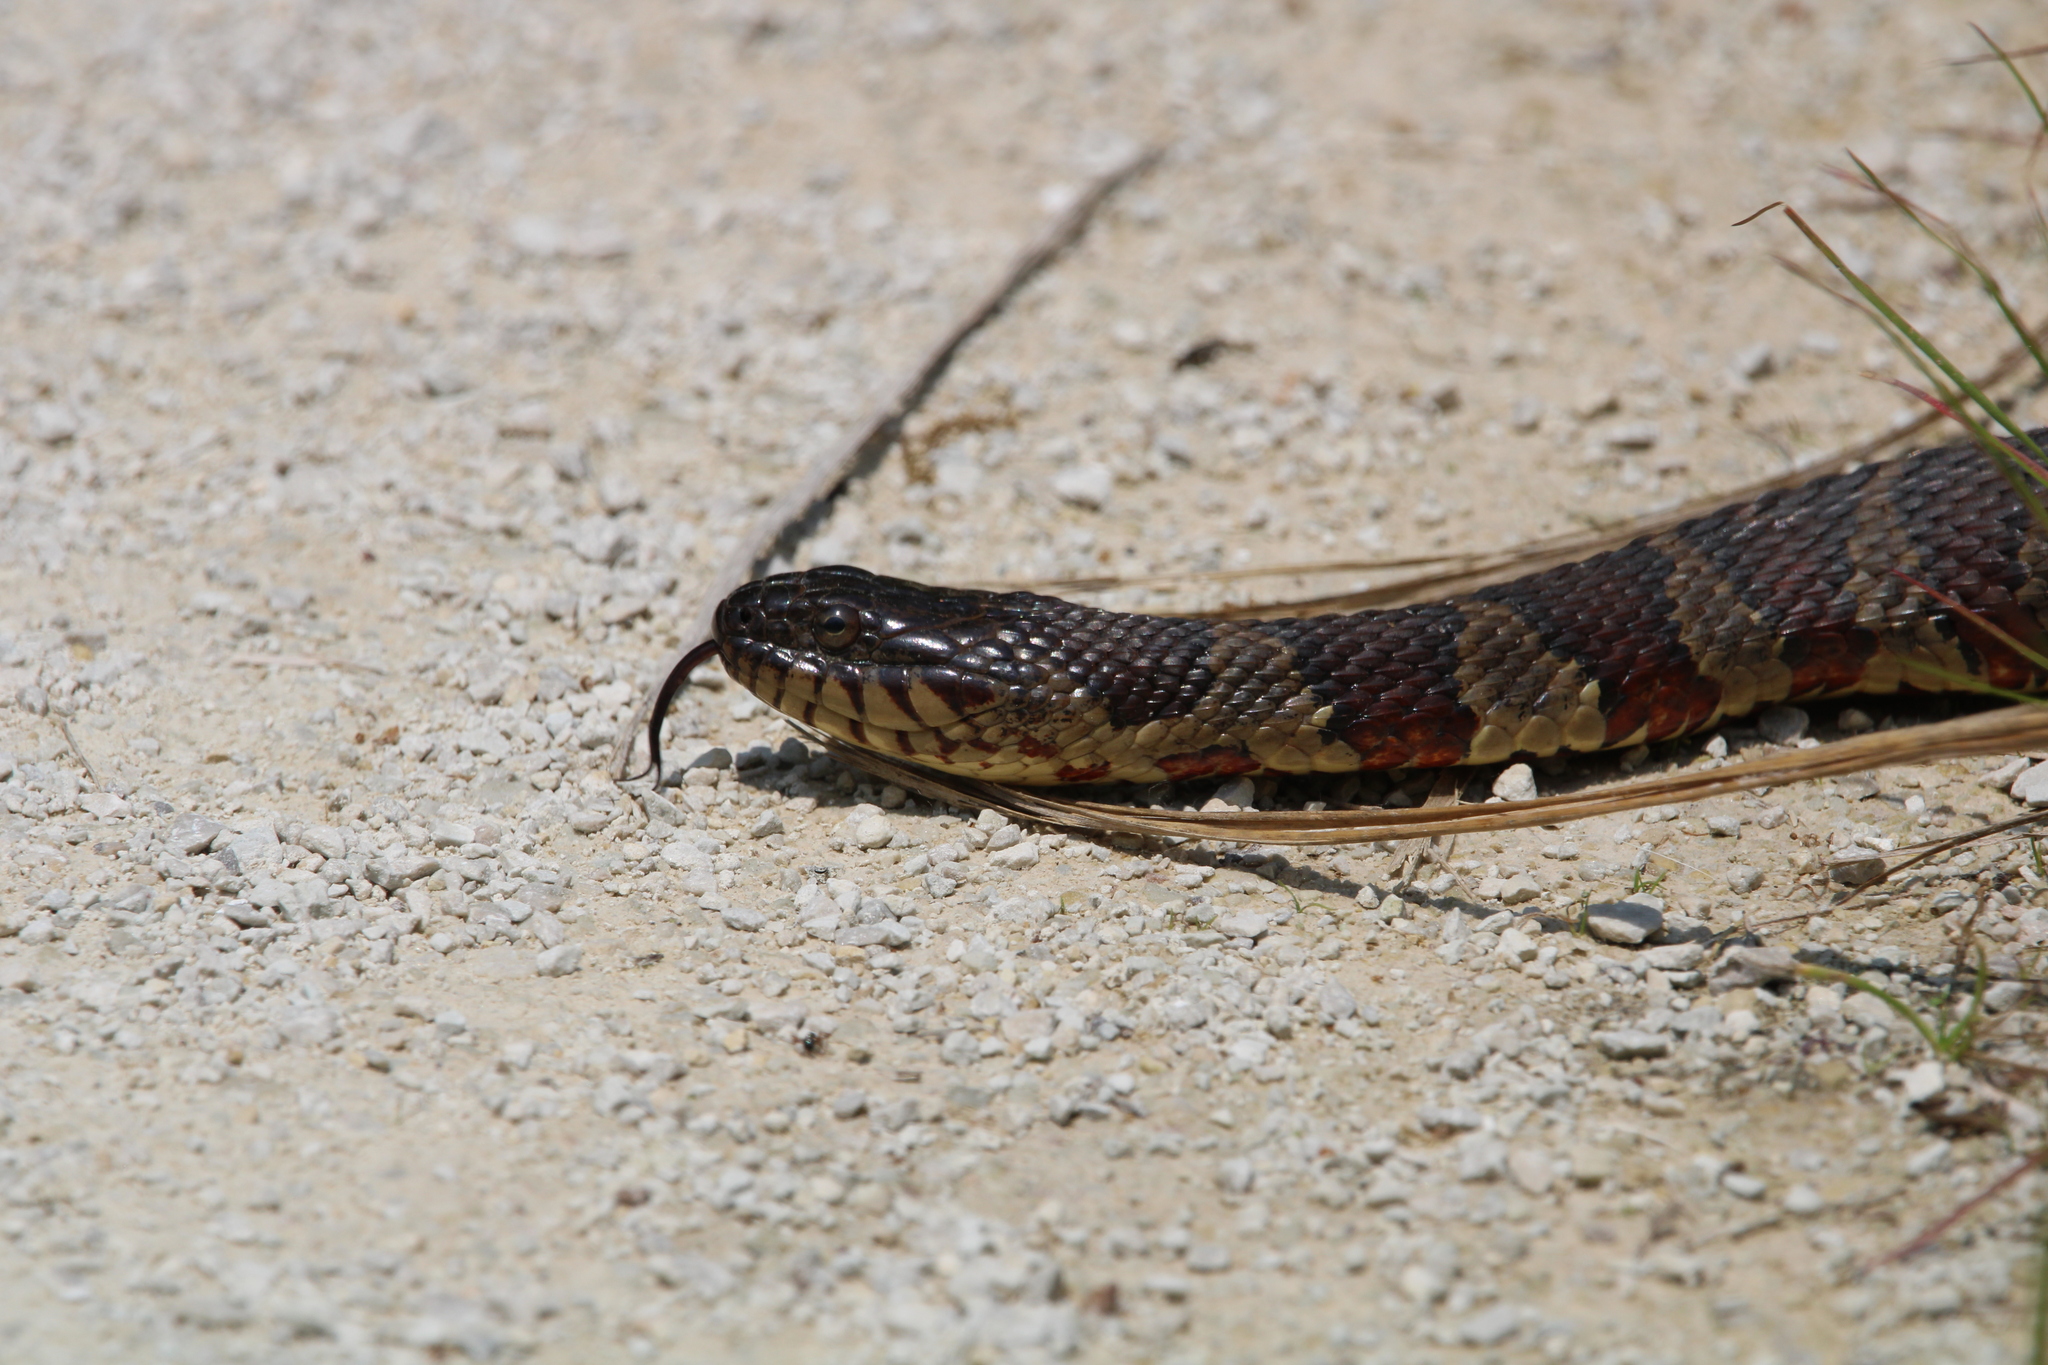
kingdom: Animalia
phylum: Chordata
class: Squamata
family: Colubridae
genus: Nerodia
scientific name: Nerodia sipedon
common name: Northern water snake
